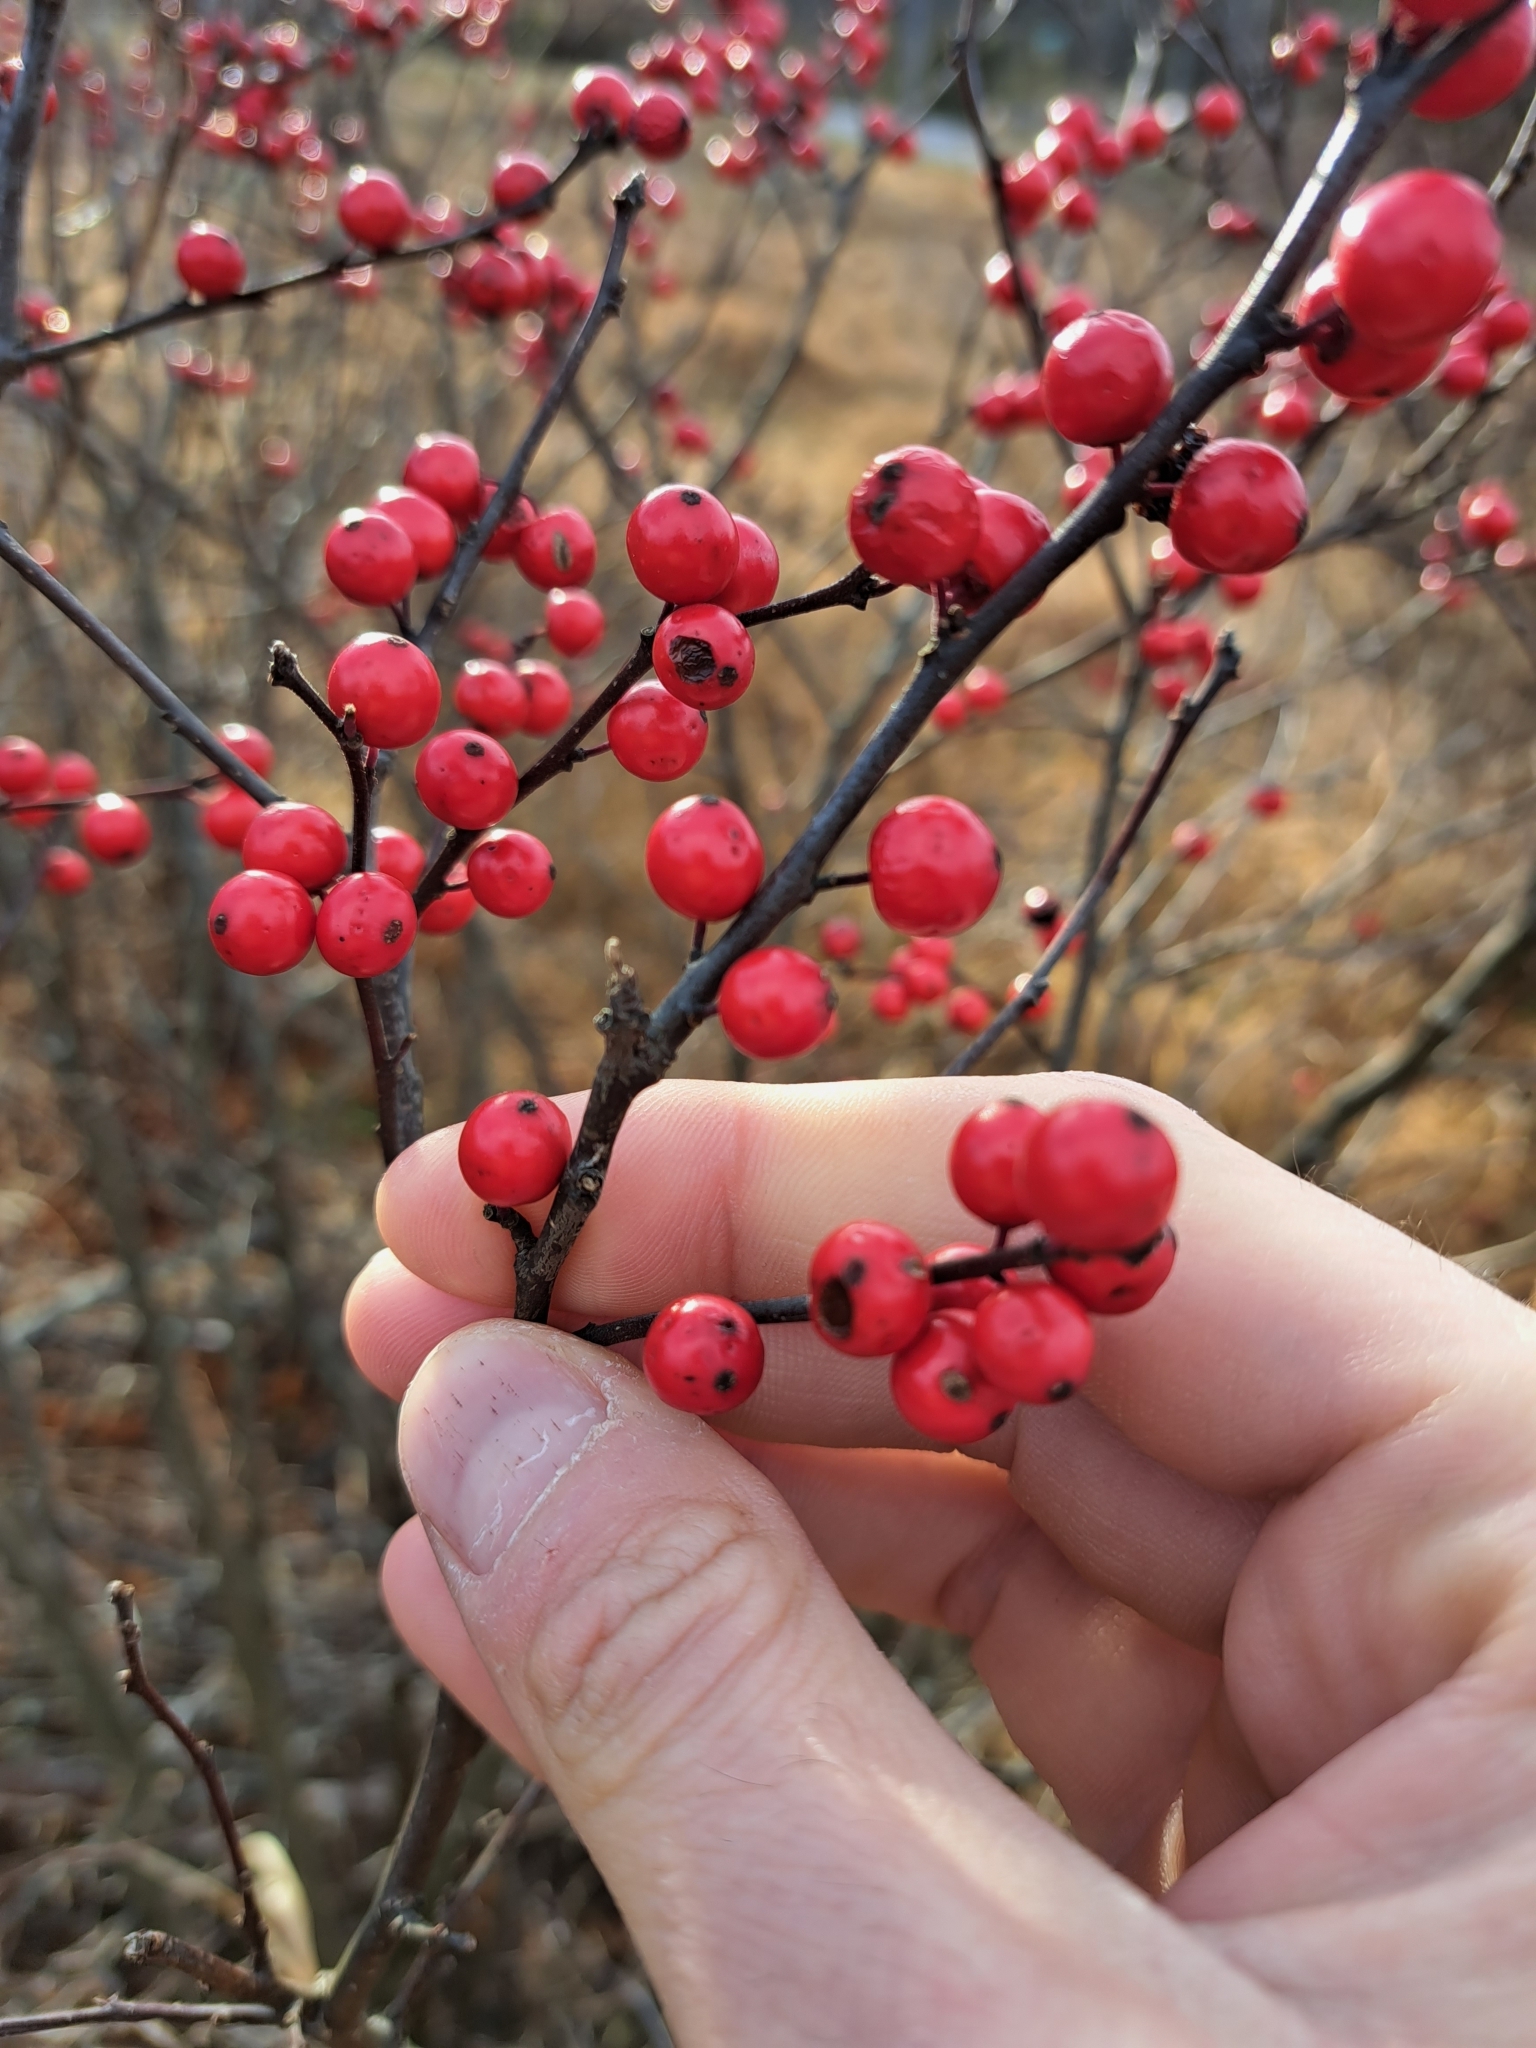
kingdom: Plantae
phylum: Tracheophyta
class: Magnoliopsida
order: Aquifoliales
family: Aquifoliaceae
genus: Ilex
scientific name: Ilex verticillata
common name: Virginia winterberry
